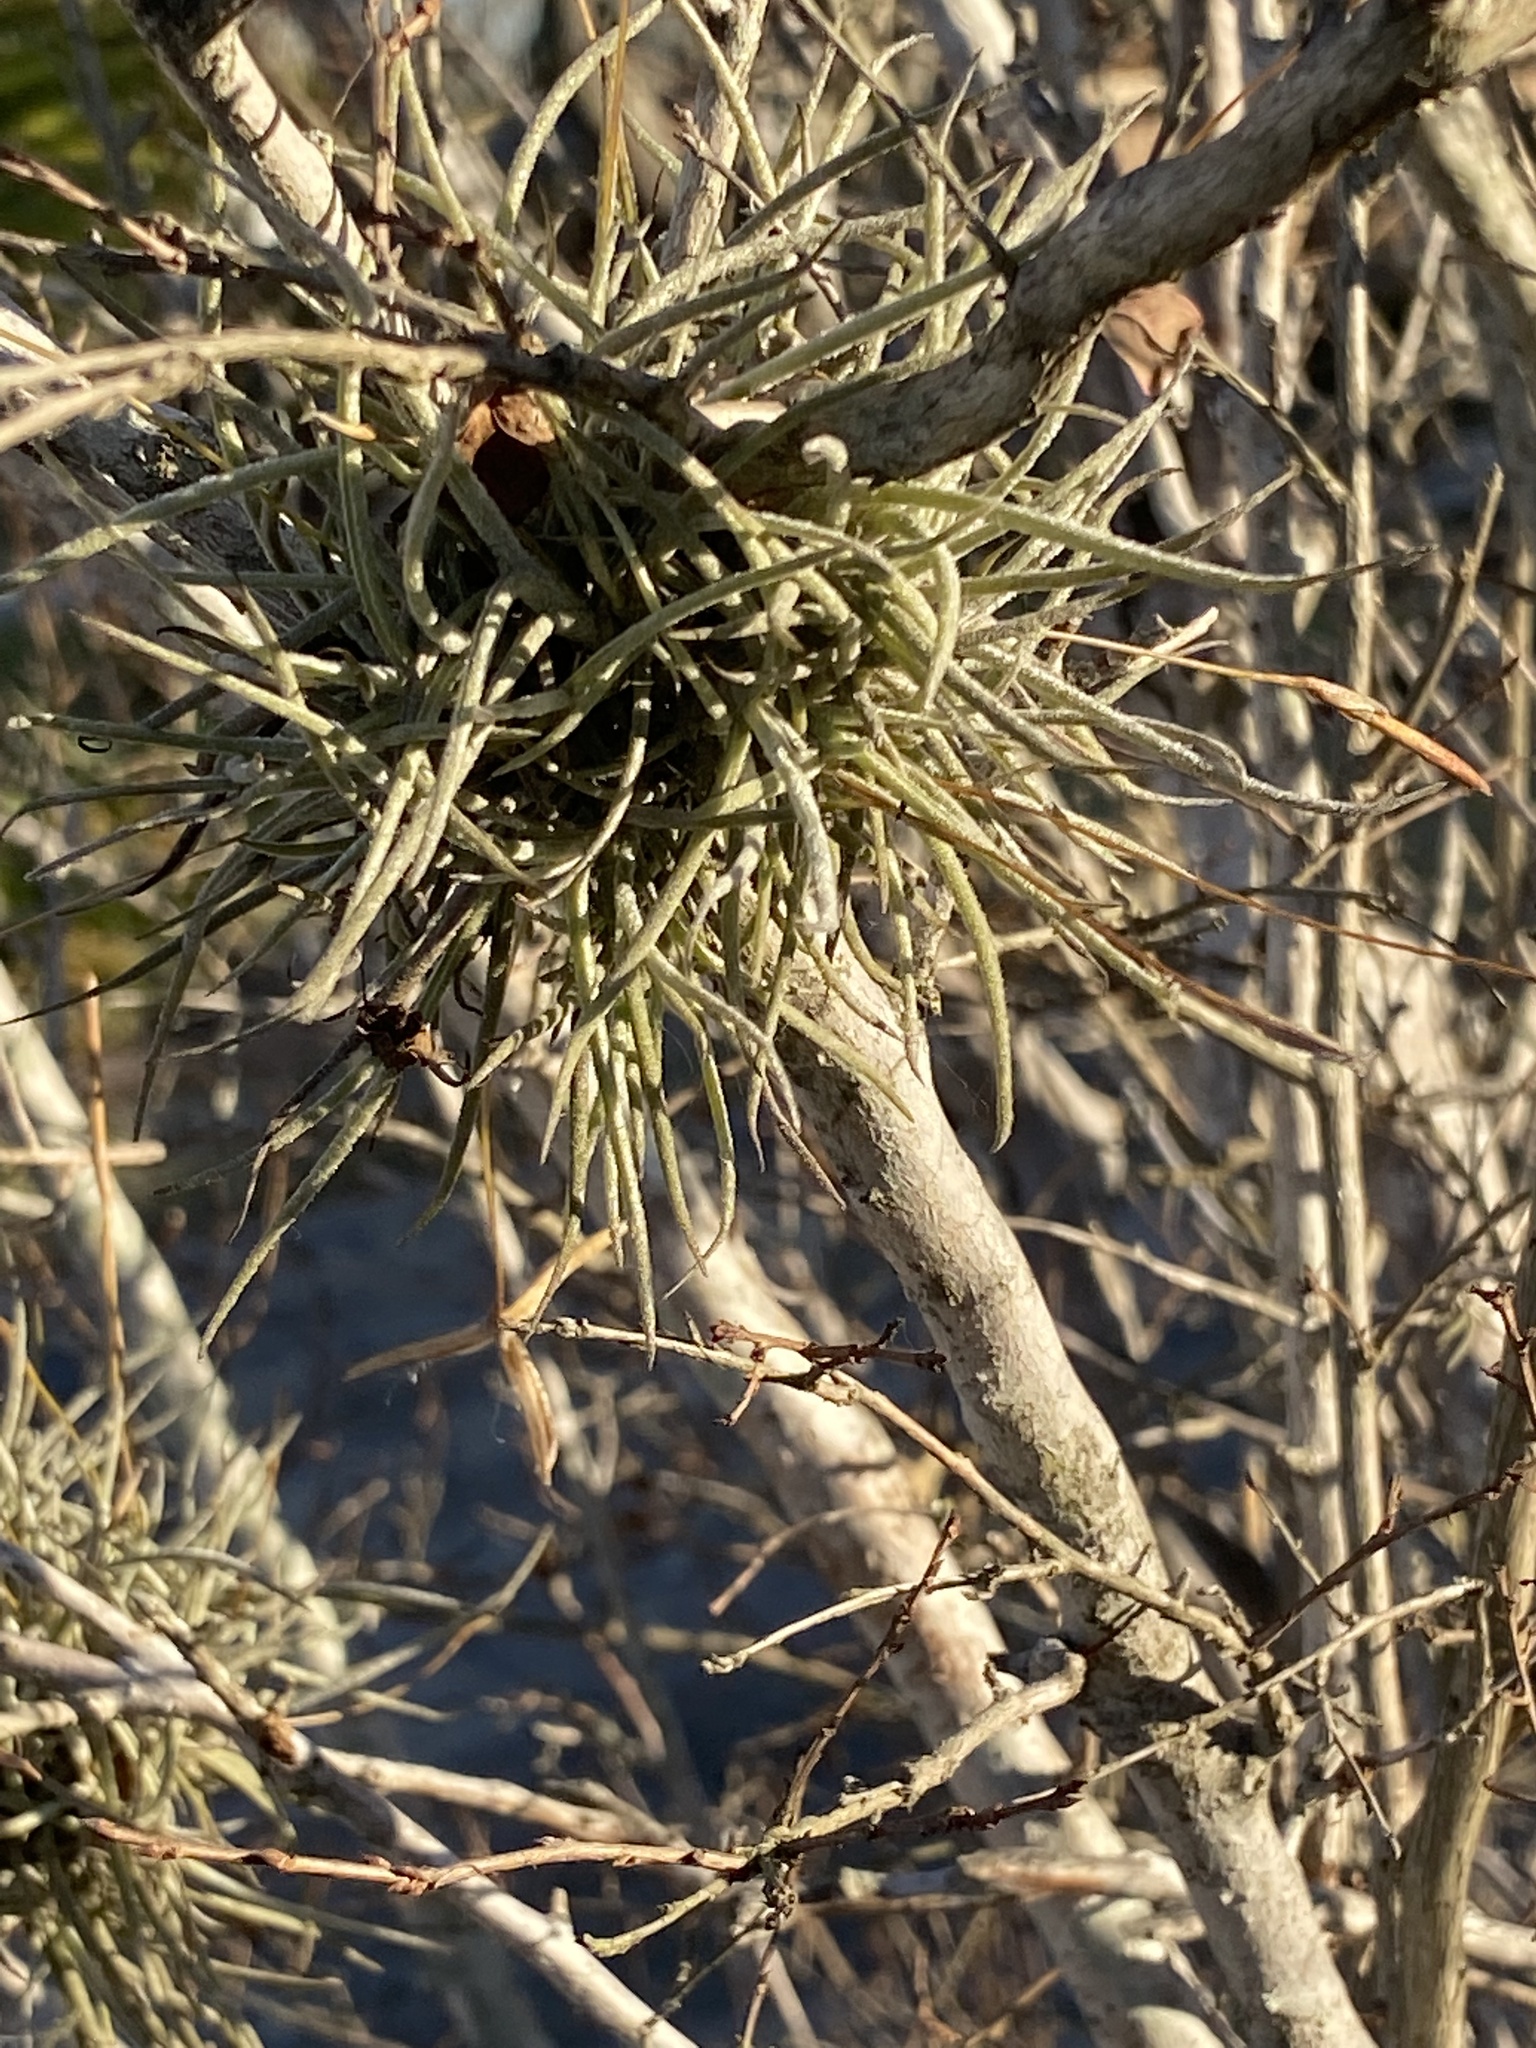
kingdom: Plantae
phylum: Tracheophyta
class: Liliopsida
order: Poales
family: Bromeliaceae
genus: Tillandsia
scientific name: Tillandsia recurvata
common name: Small ballmoss
